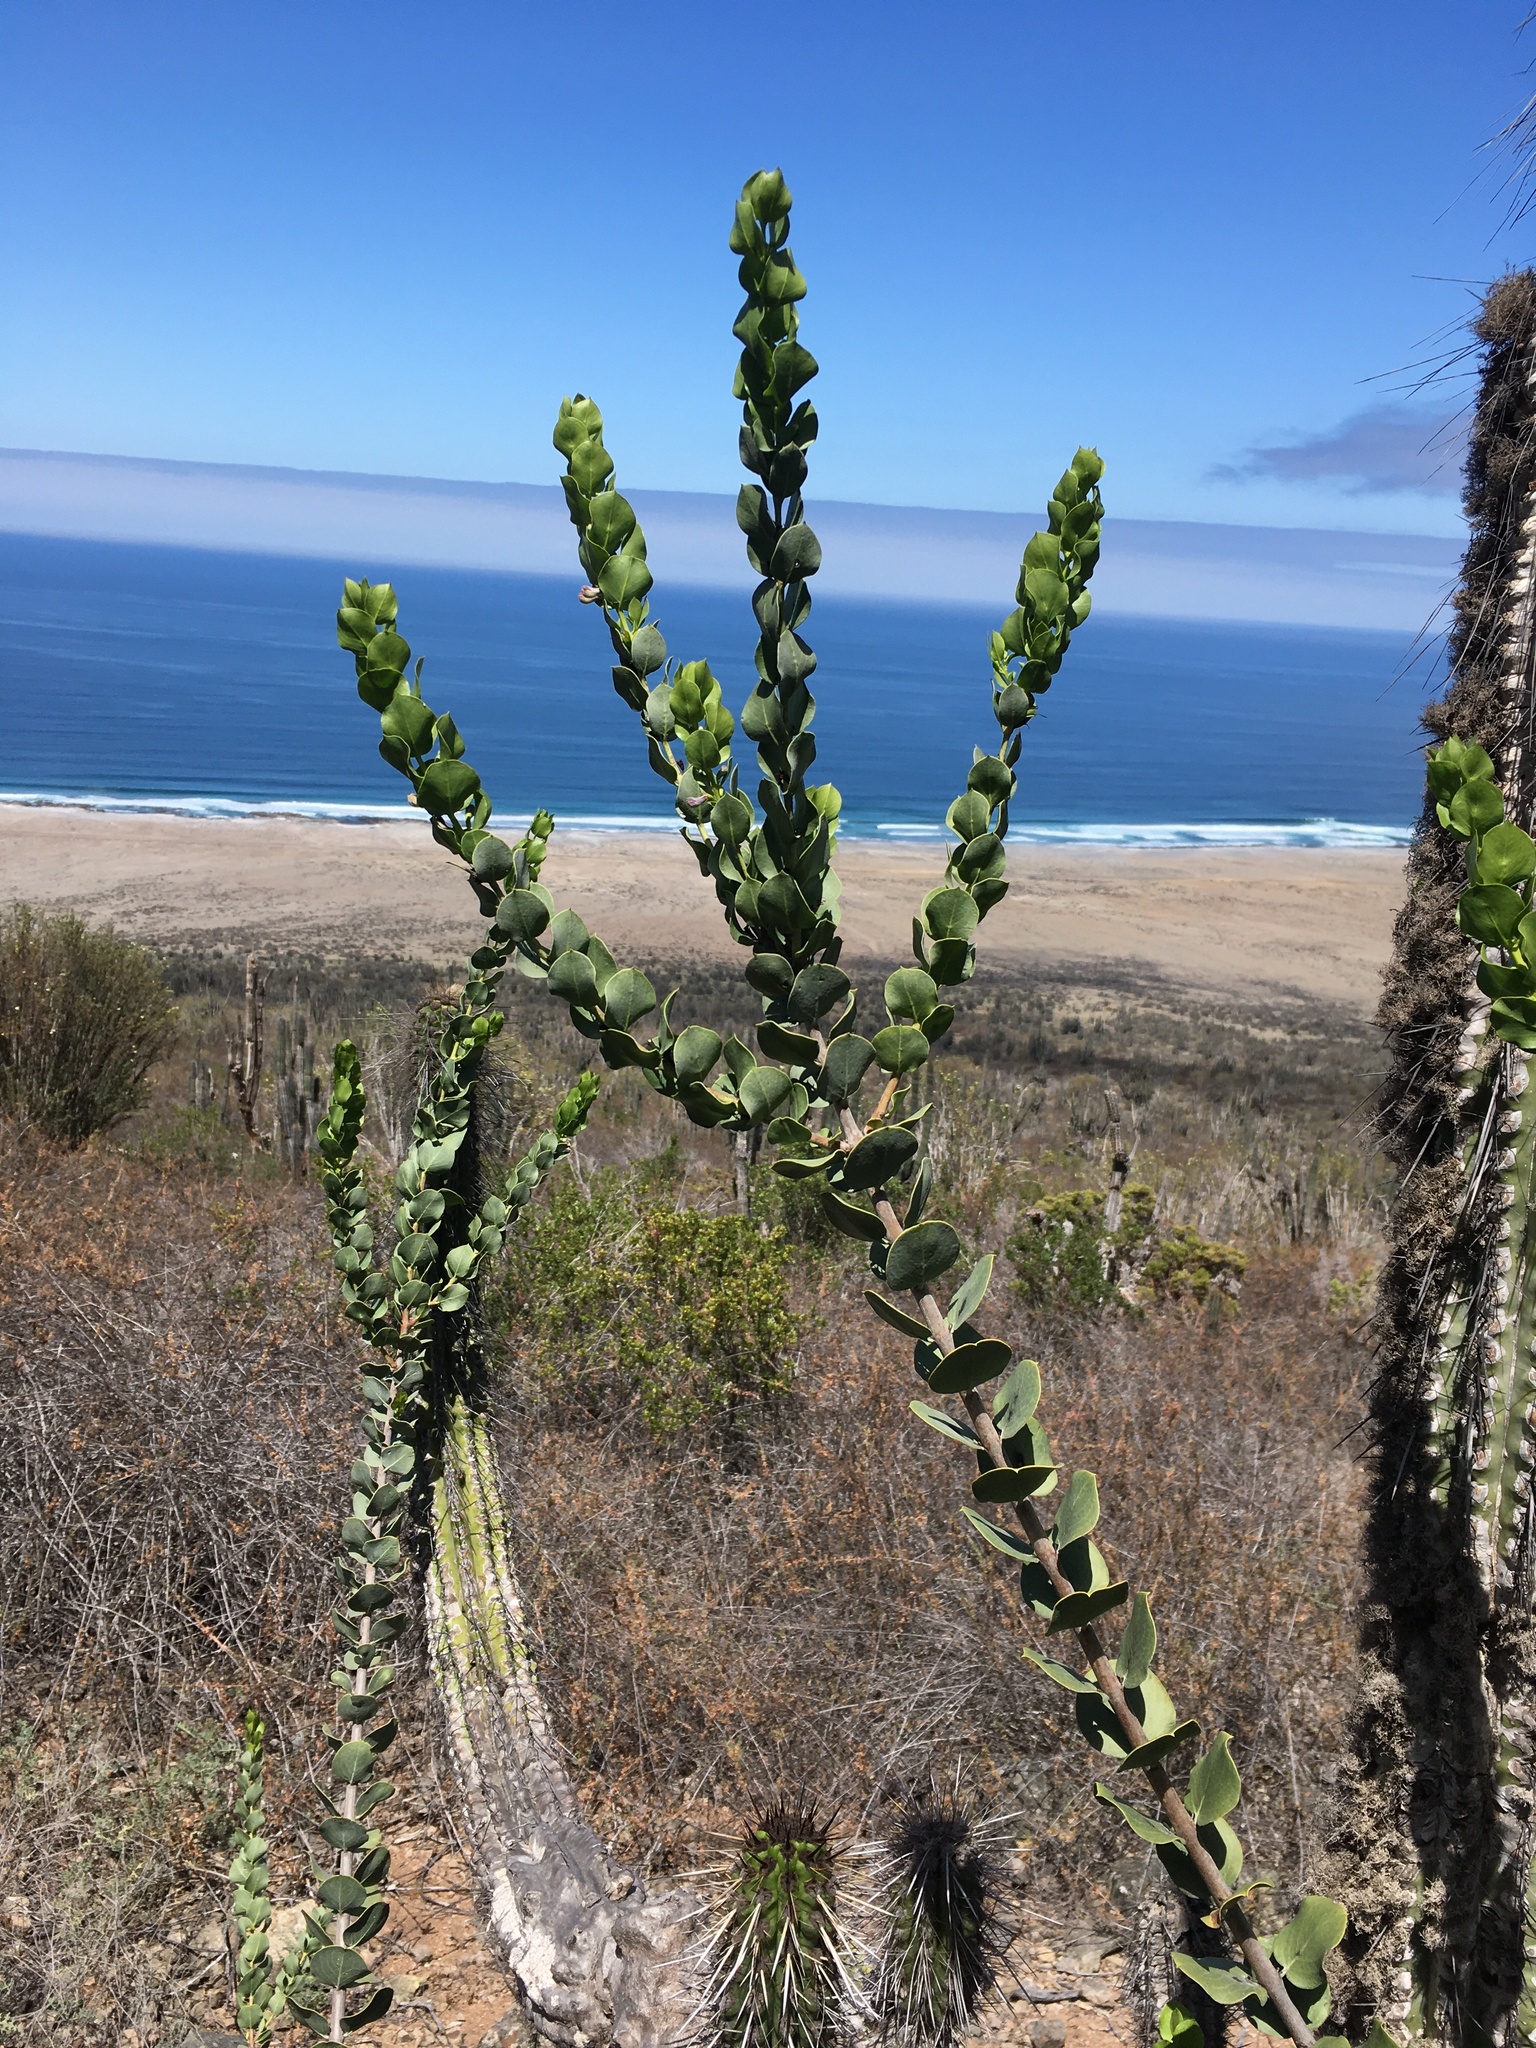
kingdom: Plantae
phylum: Tracheophyta
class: Magnoliopsida
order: Lamiales
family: Plantaginaceae
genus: Monttea
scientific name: Monttea chilensis
